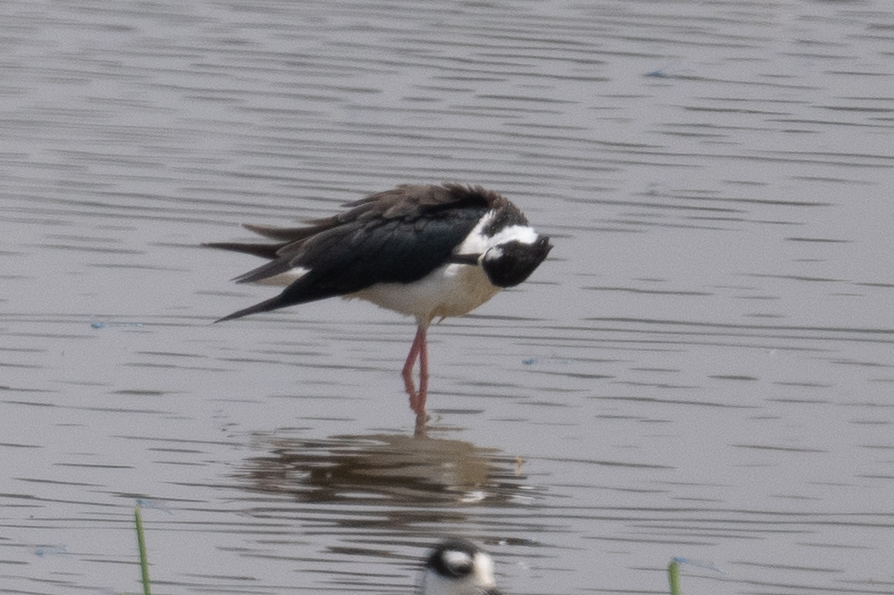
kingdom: Animalia
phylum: Chordata
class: Aves
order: Charadriiformes
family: Recurvirostridae
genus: Himantopus
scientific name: Himantopus mexicanus
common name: Black-necked stilt
